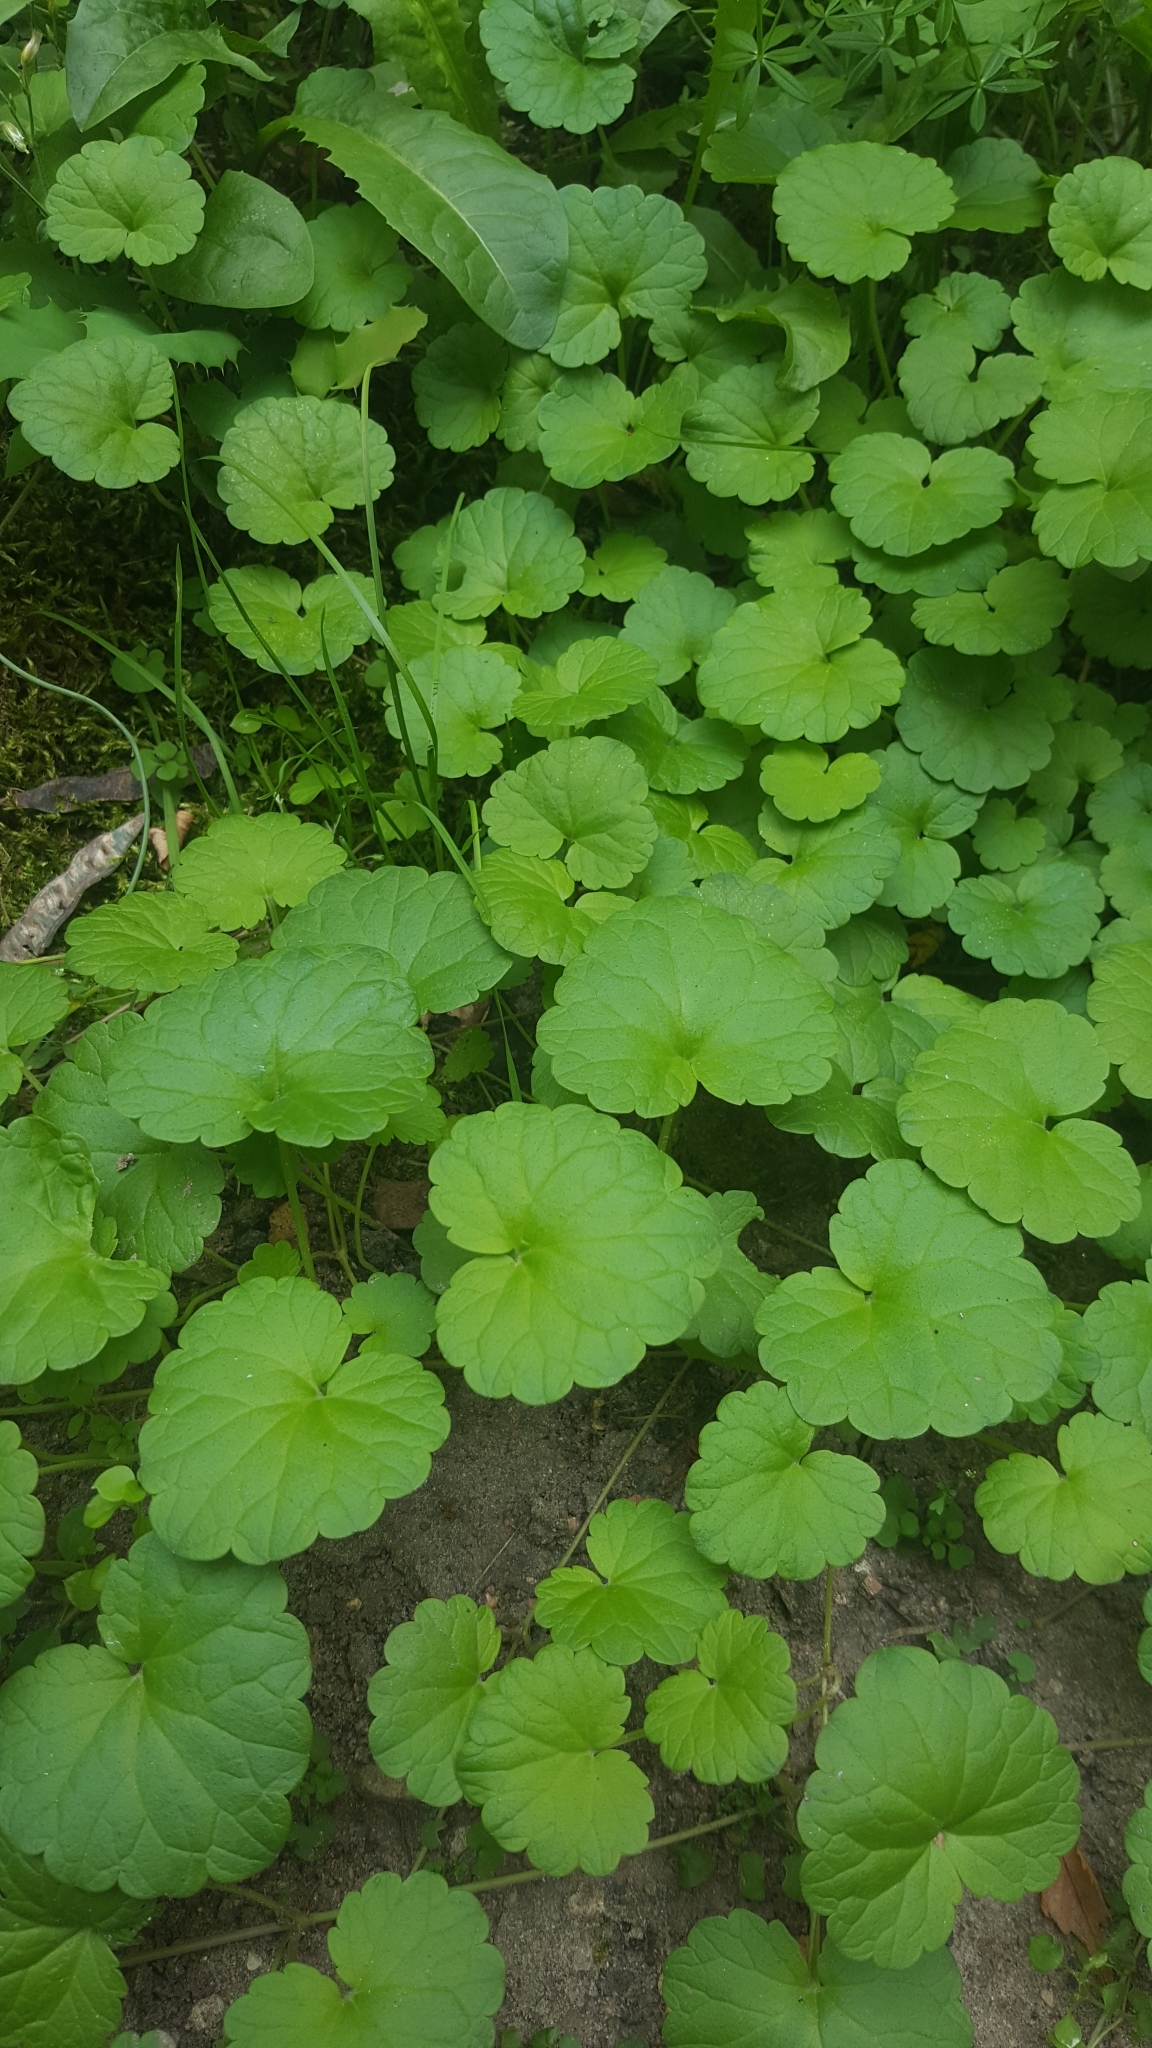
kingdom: Plantae
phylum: Tracheophyta
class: Magnoliopsida
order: Lamiales
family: Lamiaceae
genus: Glechoma
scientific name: Glechoma hederacea
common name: Ground ivy
